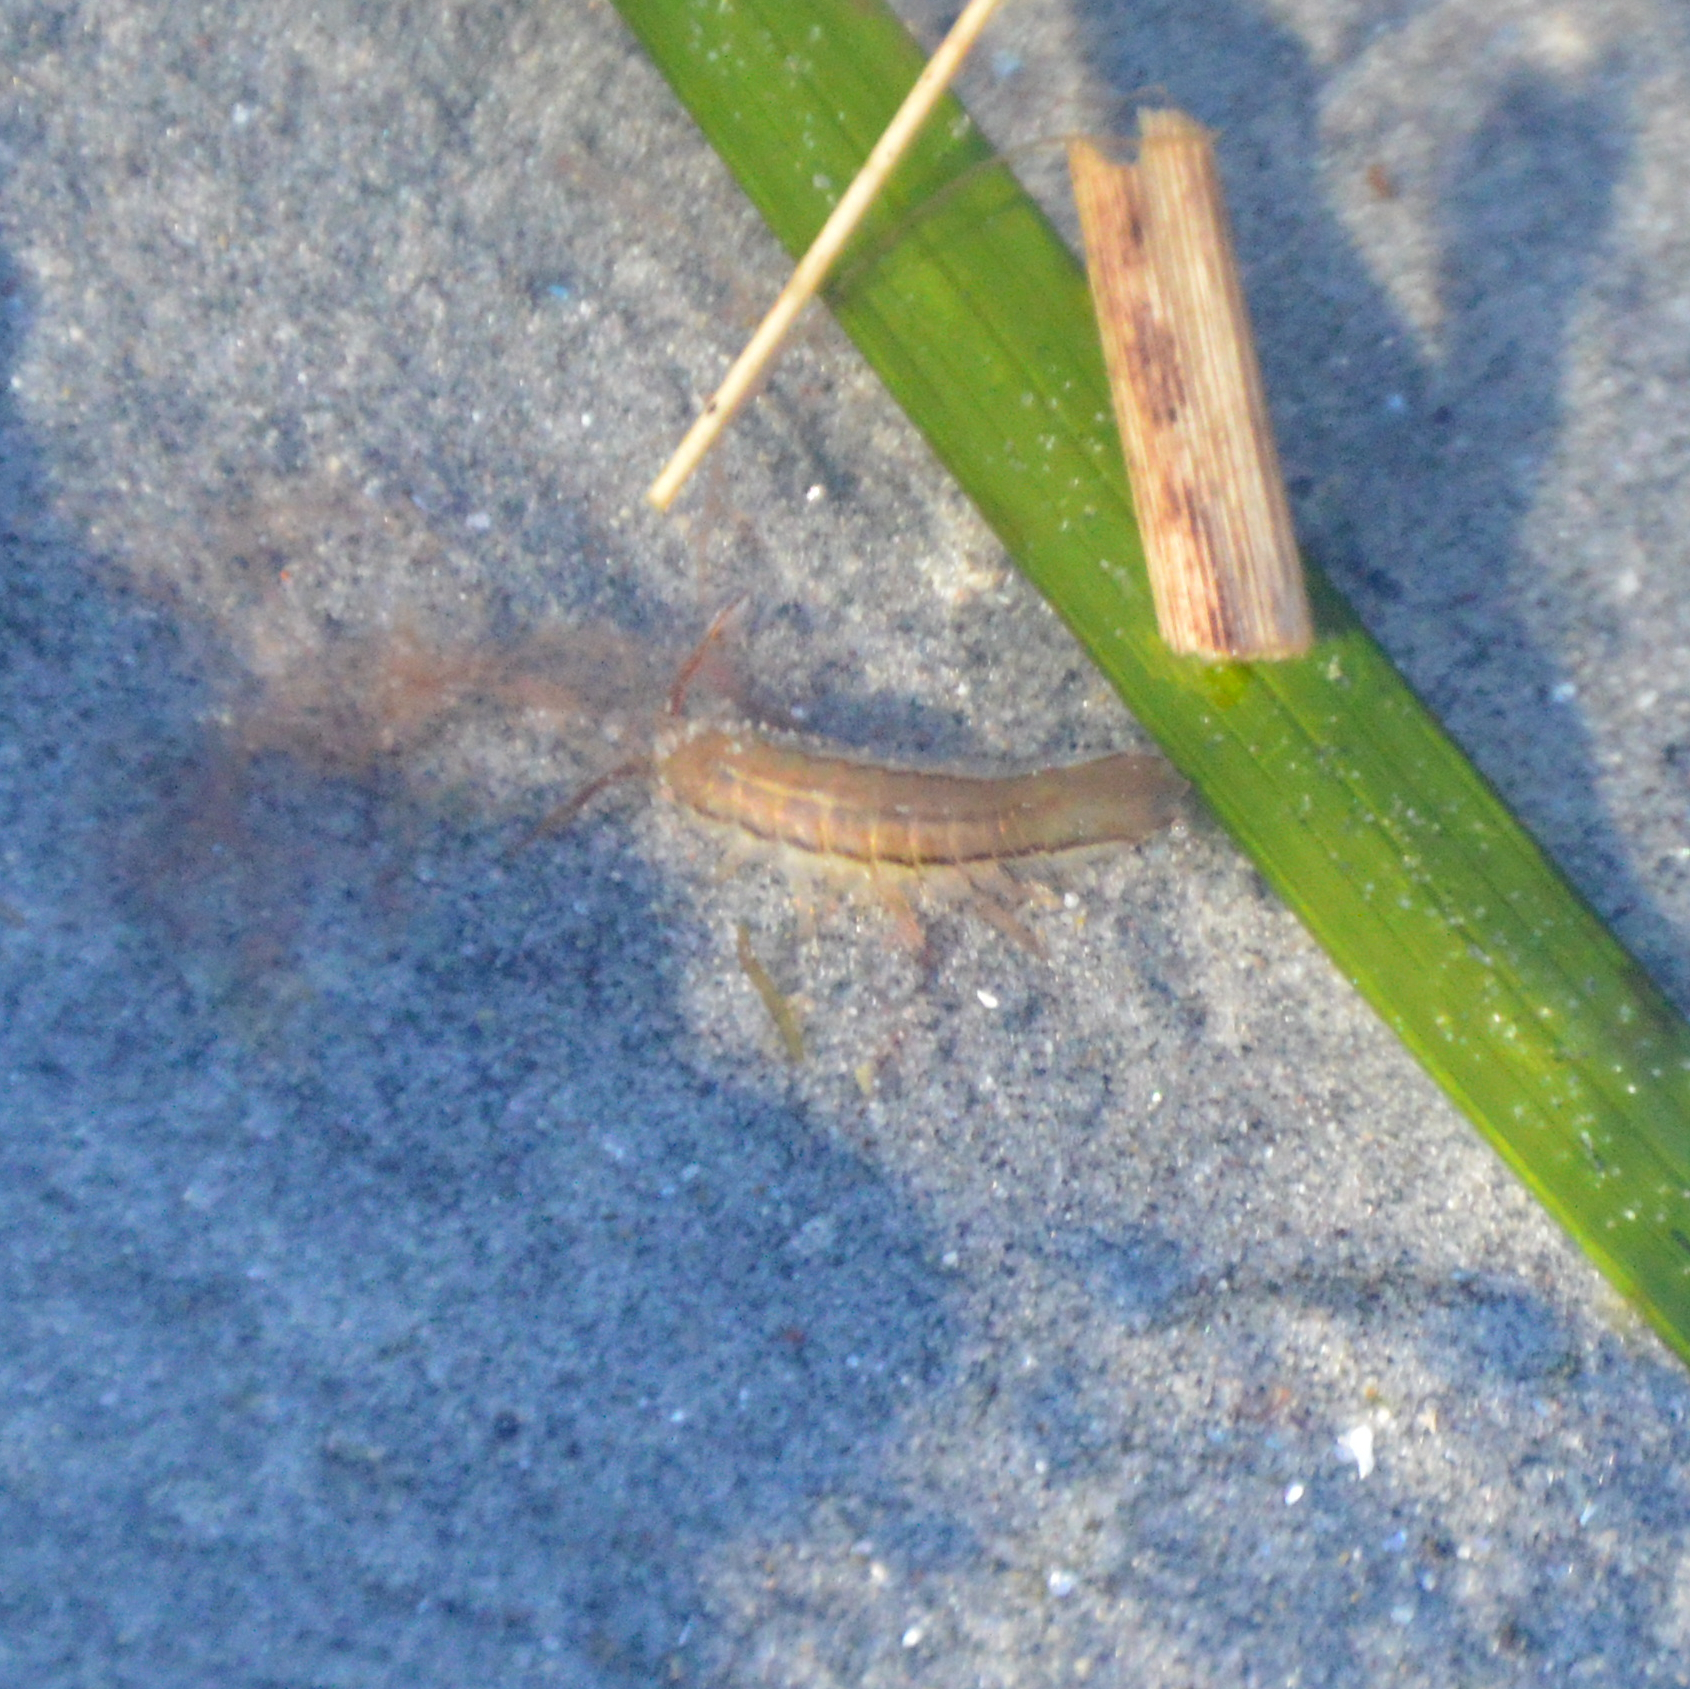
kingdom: Animalia
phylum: Arthropoda
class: Malacostraca
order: Isopoda
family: Idoteidae
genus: Idotea
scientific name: Idotea balthica
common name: Baltic isopod
